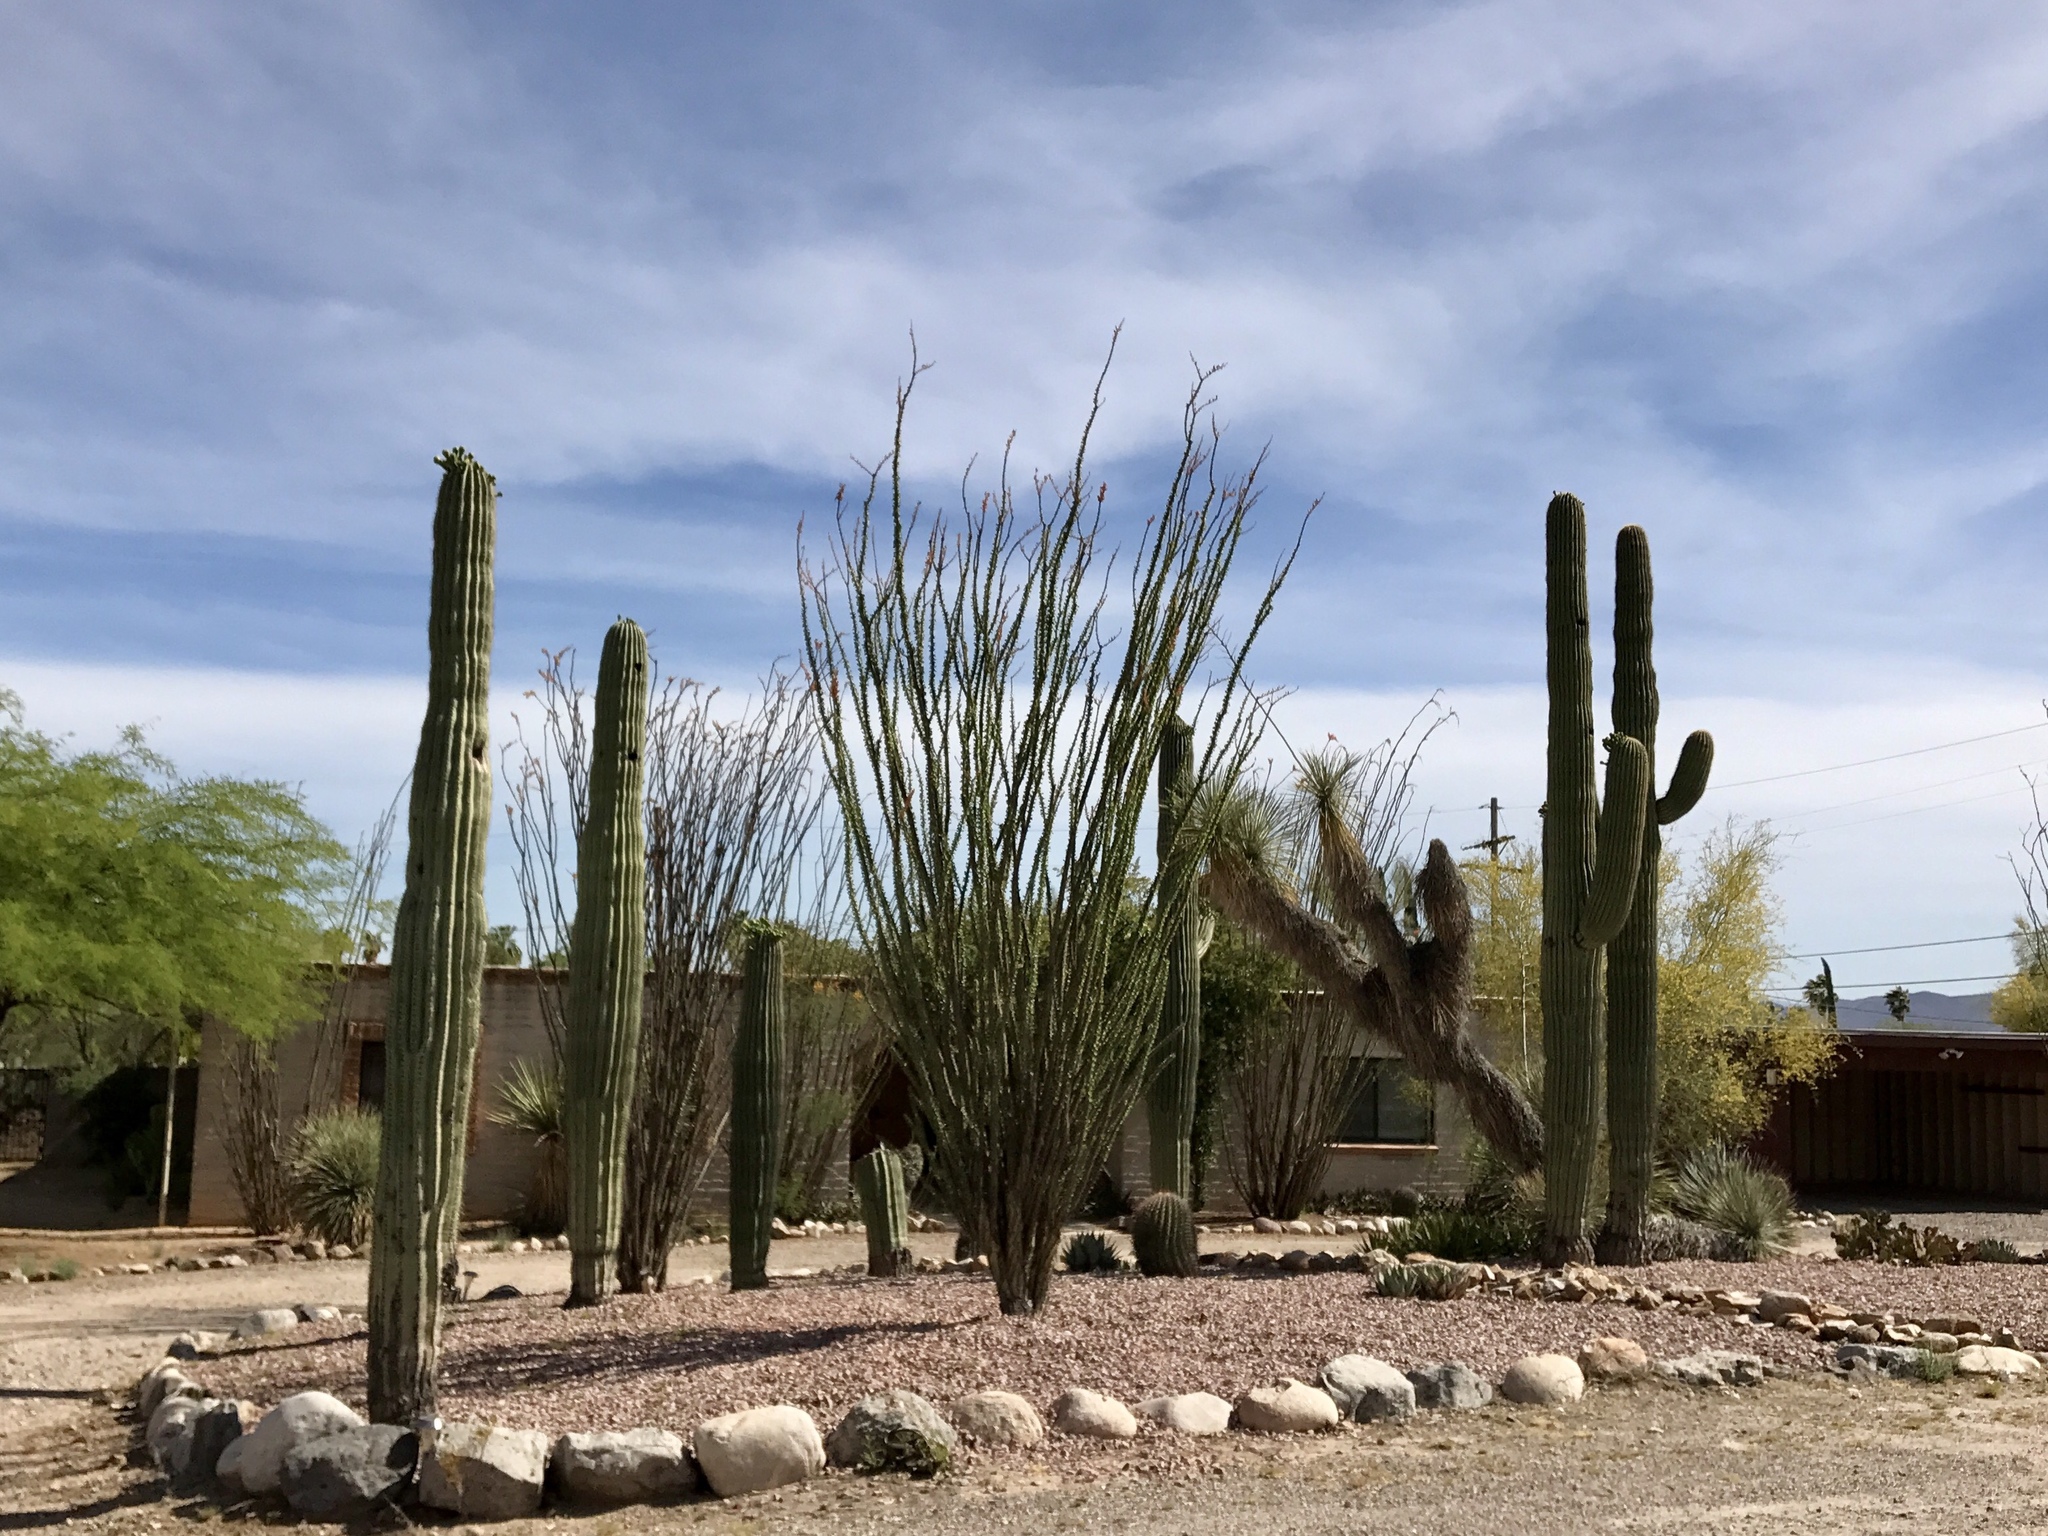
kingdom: Plantae
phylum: Tracheophyta
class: Magnoliopsida
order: Caryophyllales
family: Cactaceae
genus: Carnegiea
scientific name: Carnegiea gigantea
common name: Saguaro
